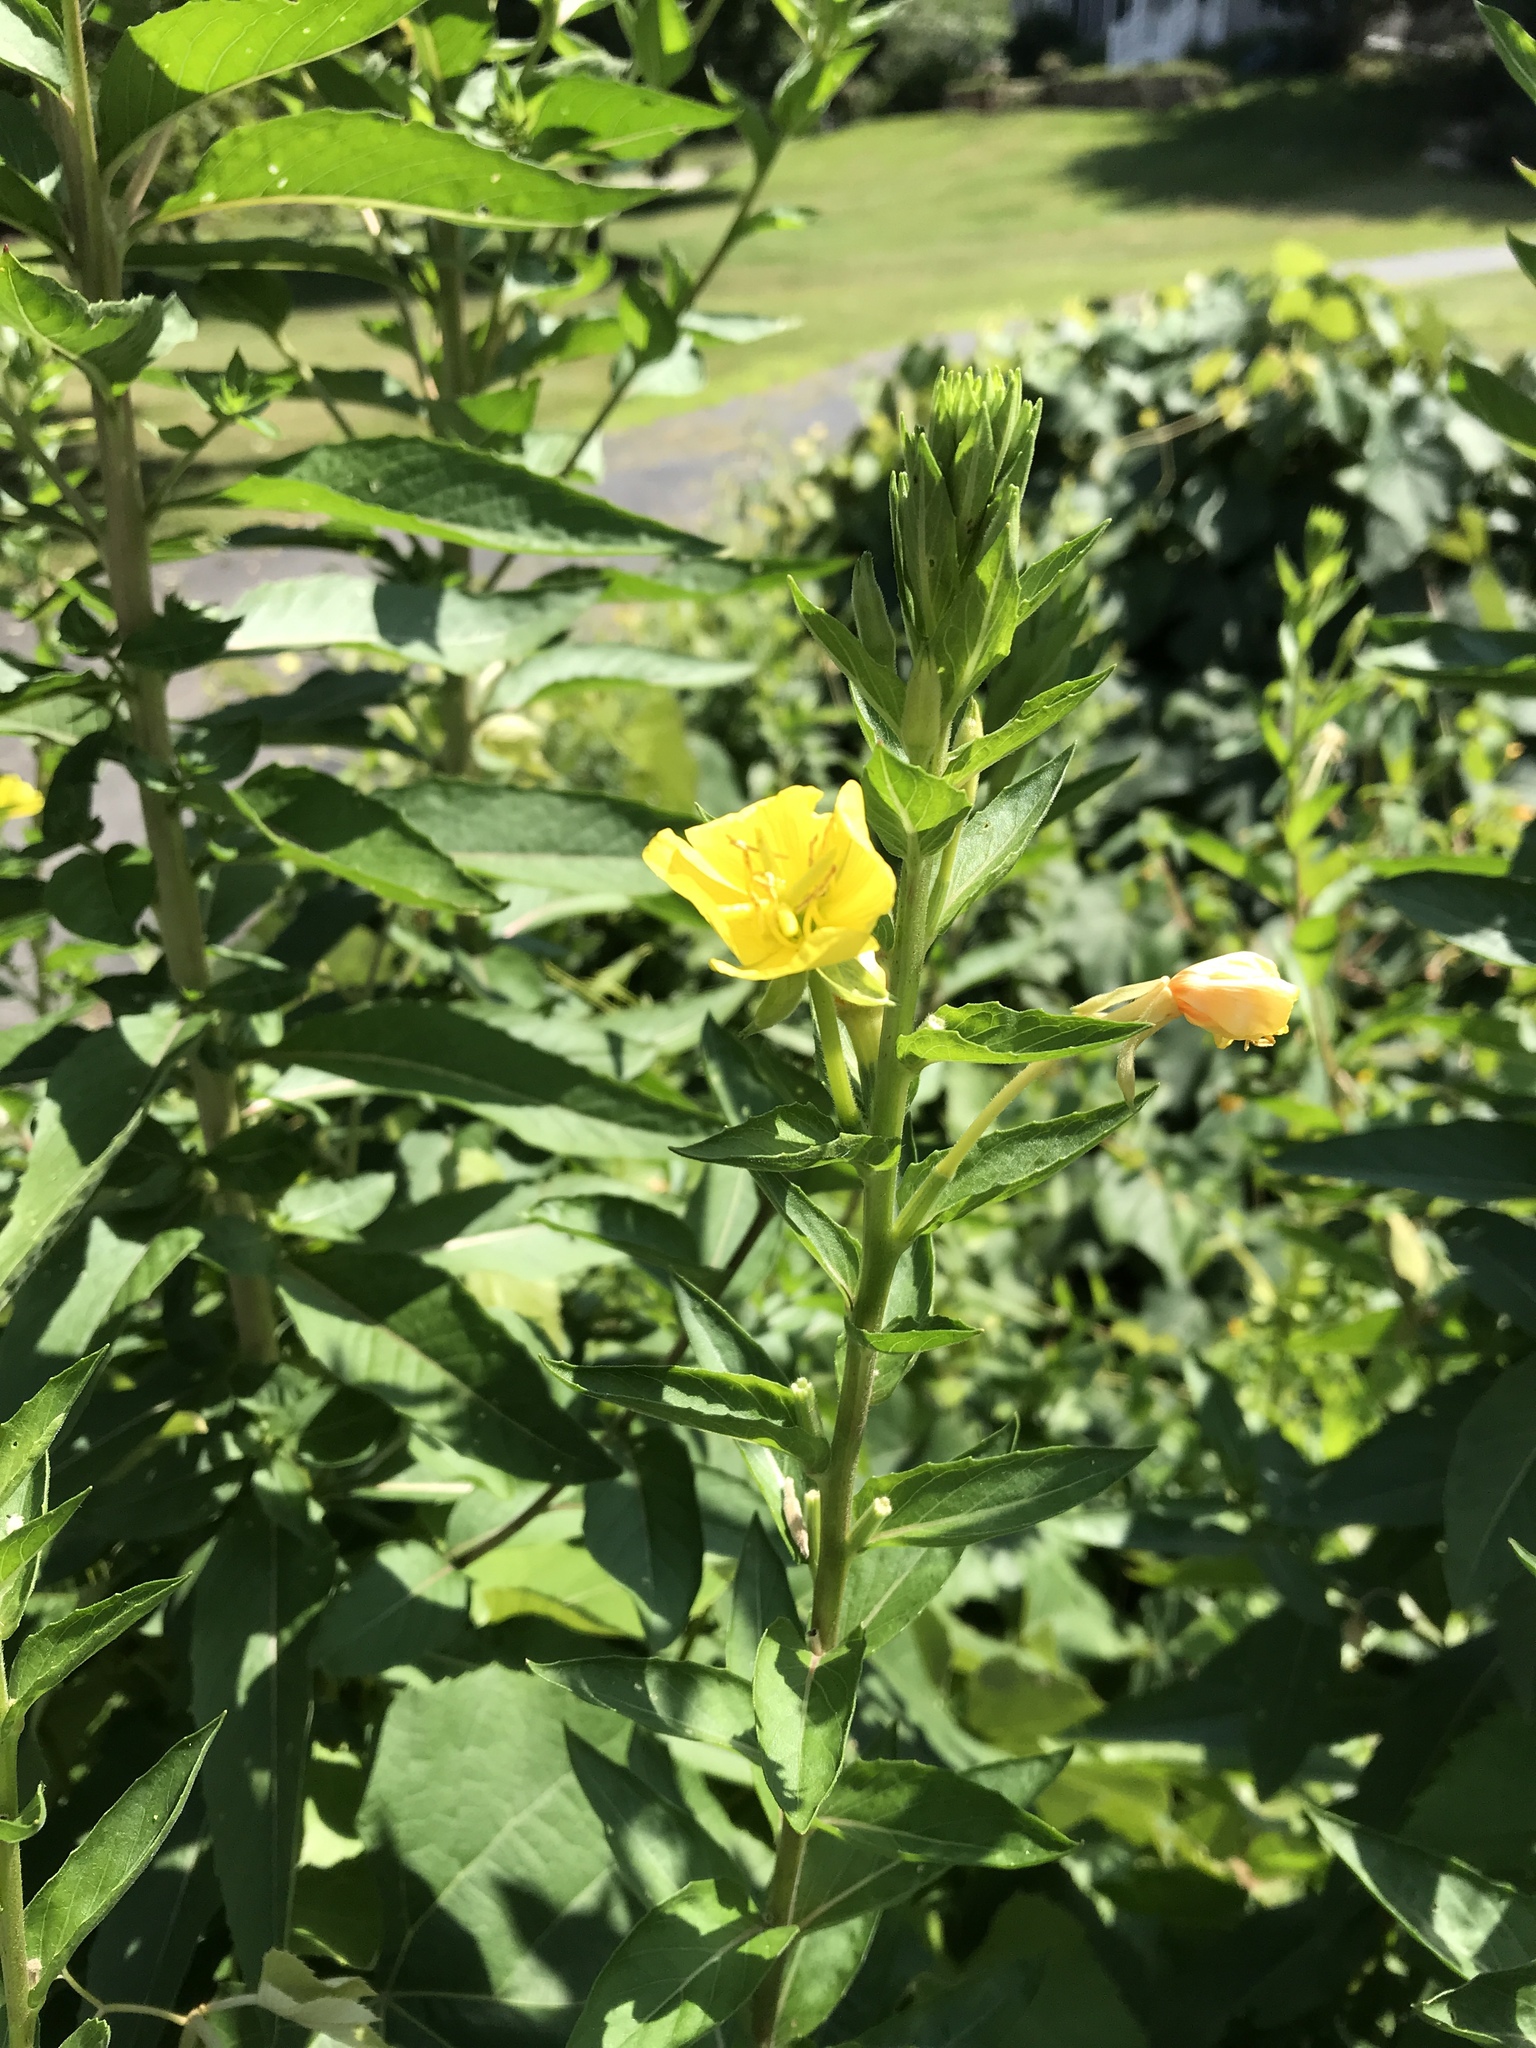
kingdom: Plantae
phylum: Tracheophyta
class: Magnoliopsida
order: Myrtales
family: Onagraceae
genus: Oenothera
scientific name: Oenothera biennis
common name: Common evening-primrose
